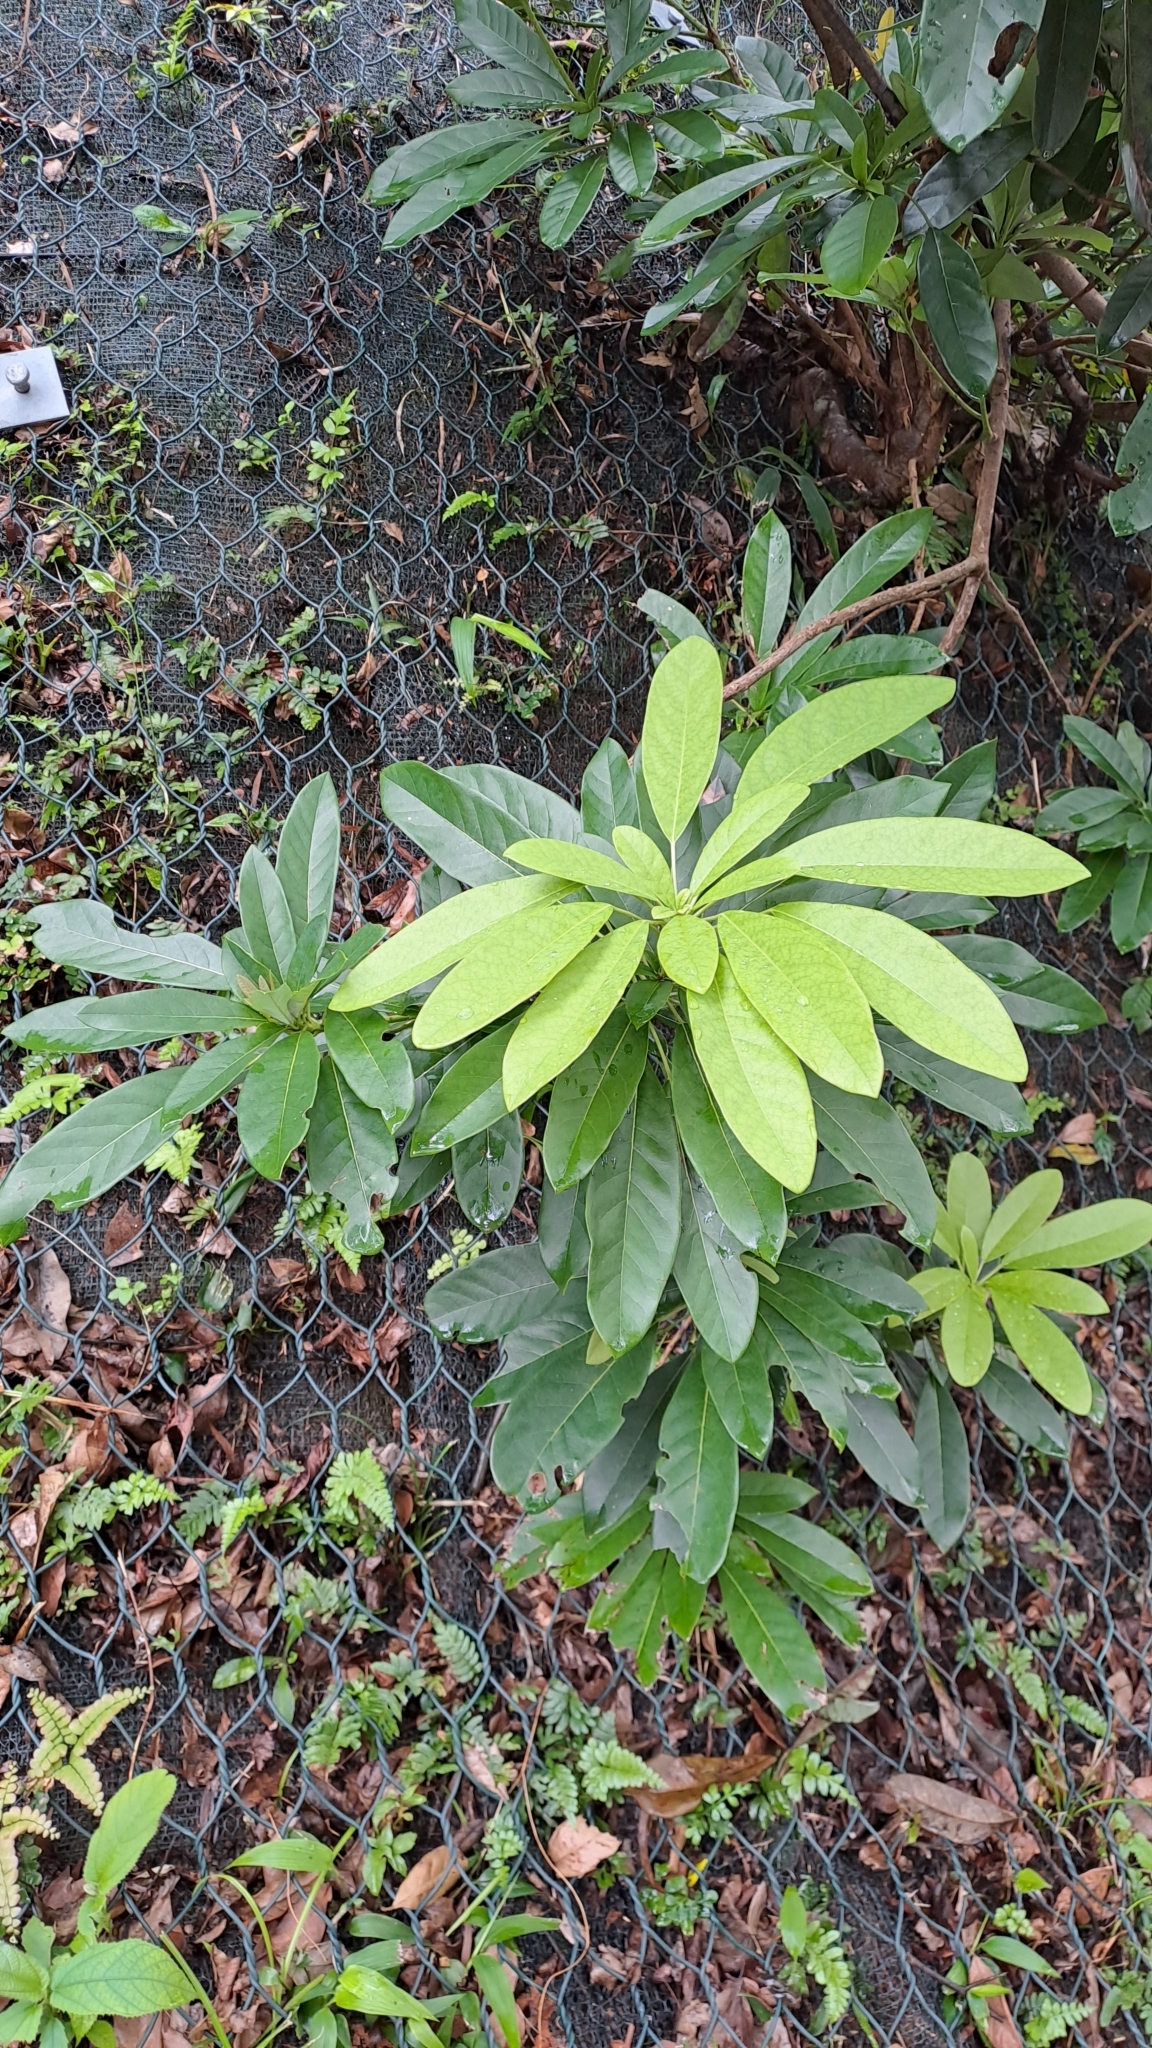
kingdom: Plantae
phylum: Tracheophyta
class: Magnoliopsida
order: Saxifragales
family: Daphniphyllaceae
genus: Daphniphyllum
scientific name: Daphniphyllum calycinum
